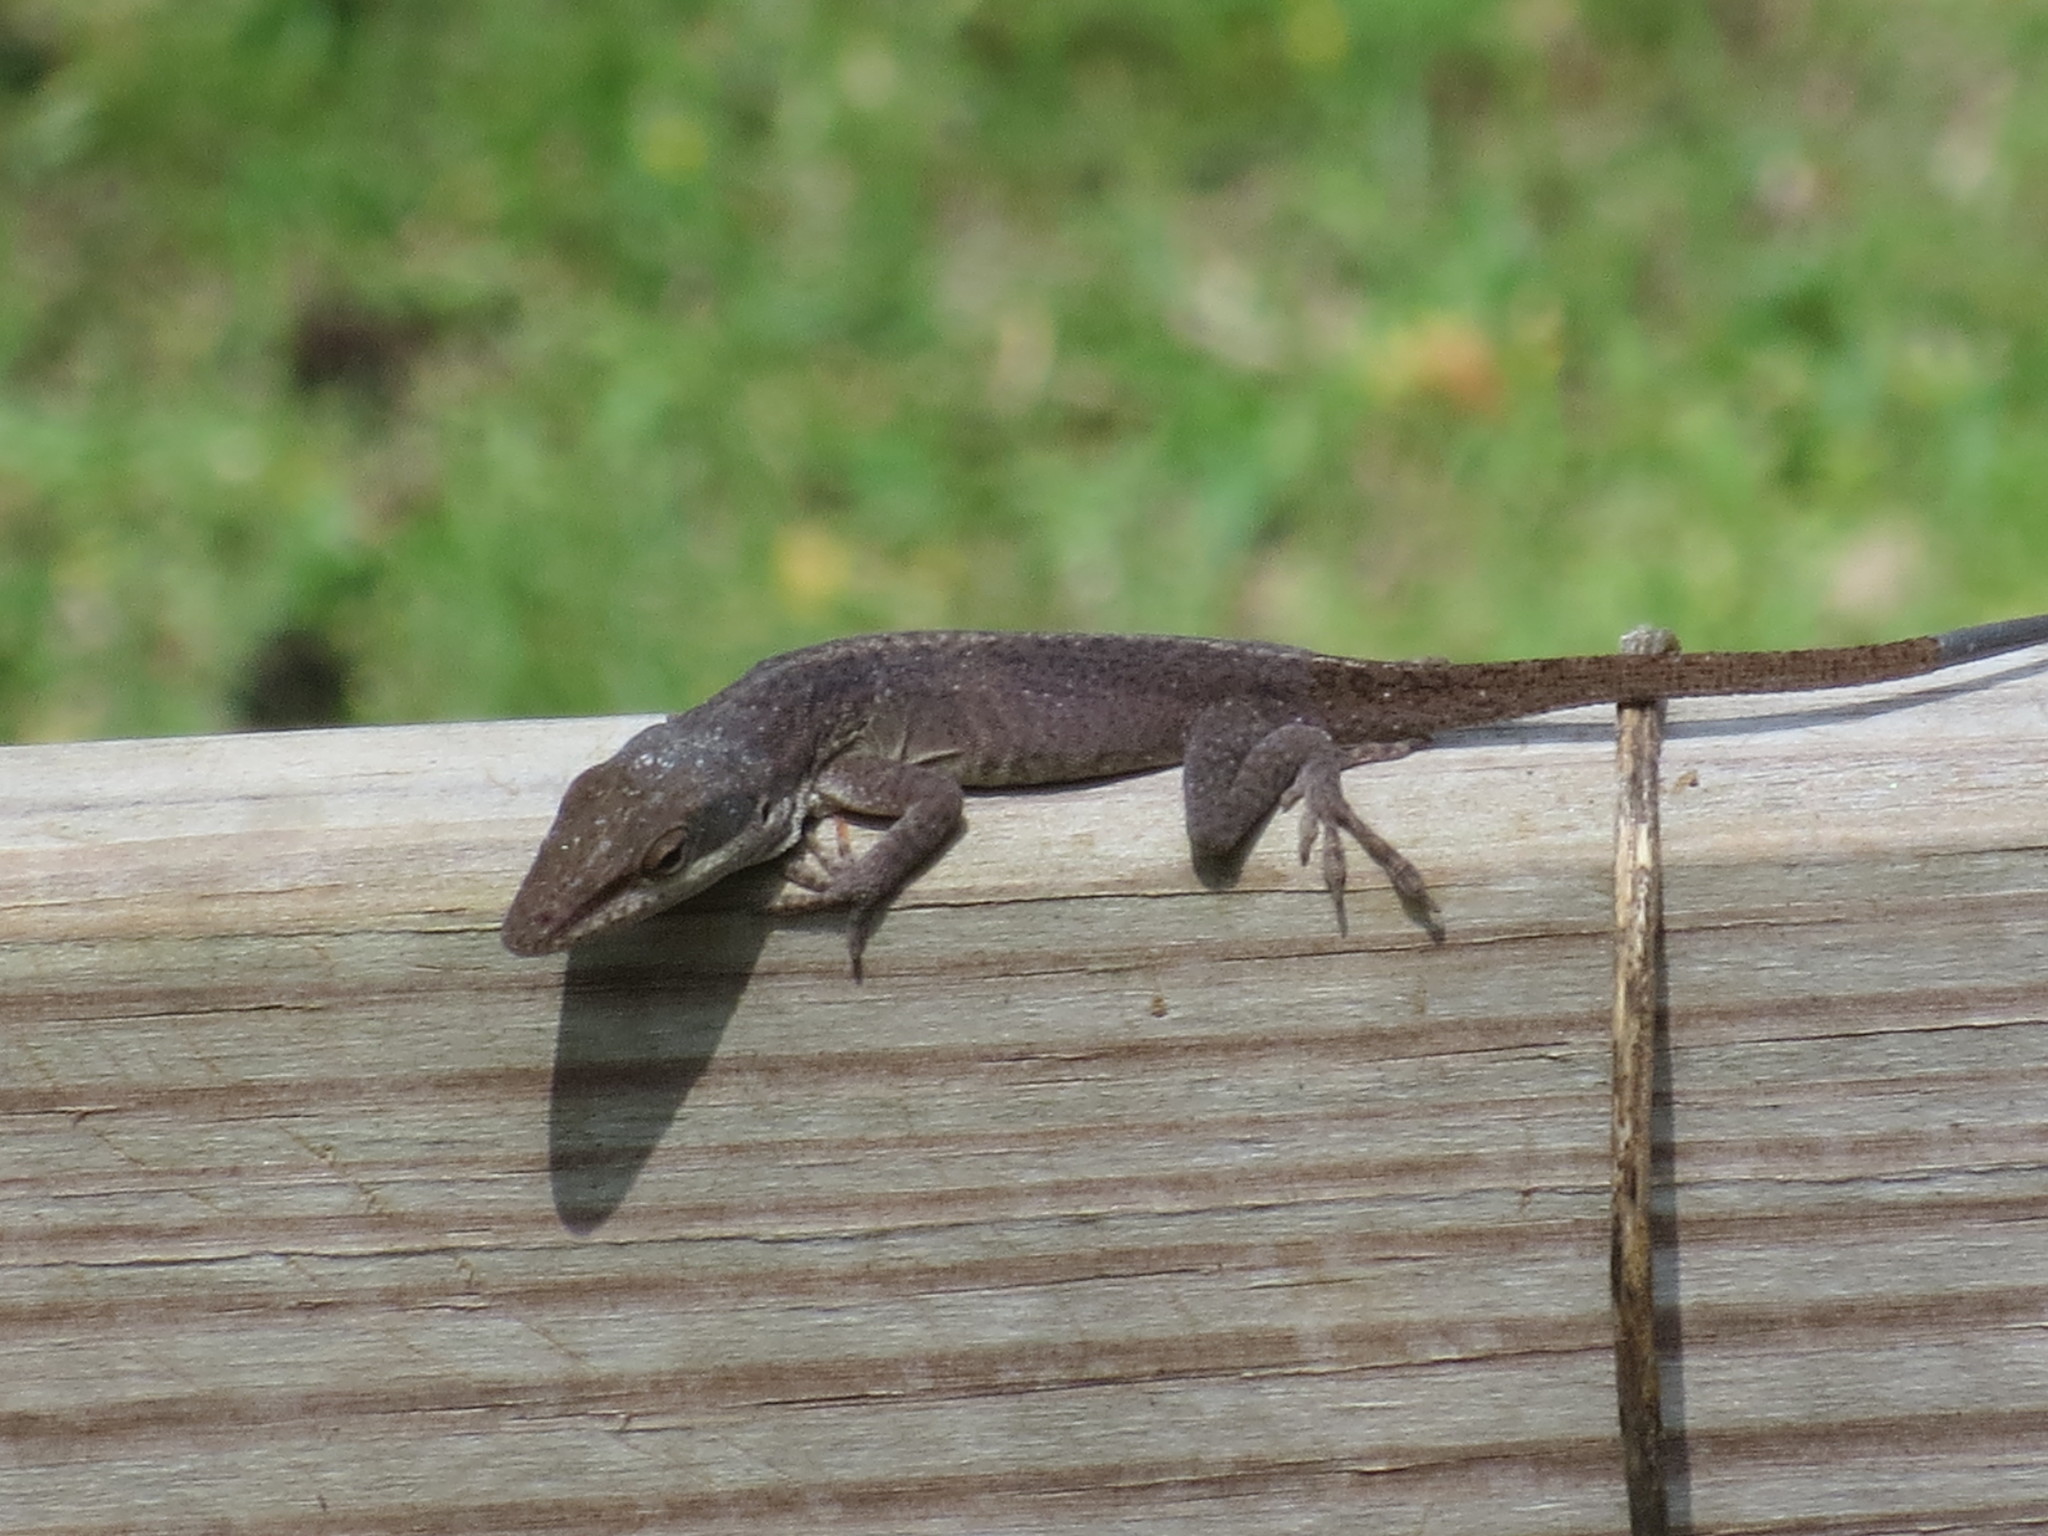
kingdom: Animalia
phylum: Chordata
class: Squamata
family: Dactyloidae
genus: Anolis
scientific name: Anolis carolinensis
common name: Green anole
